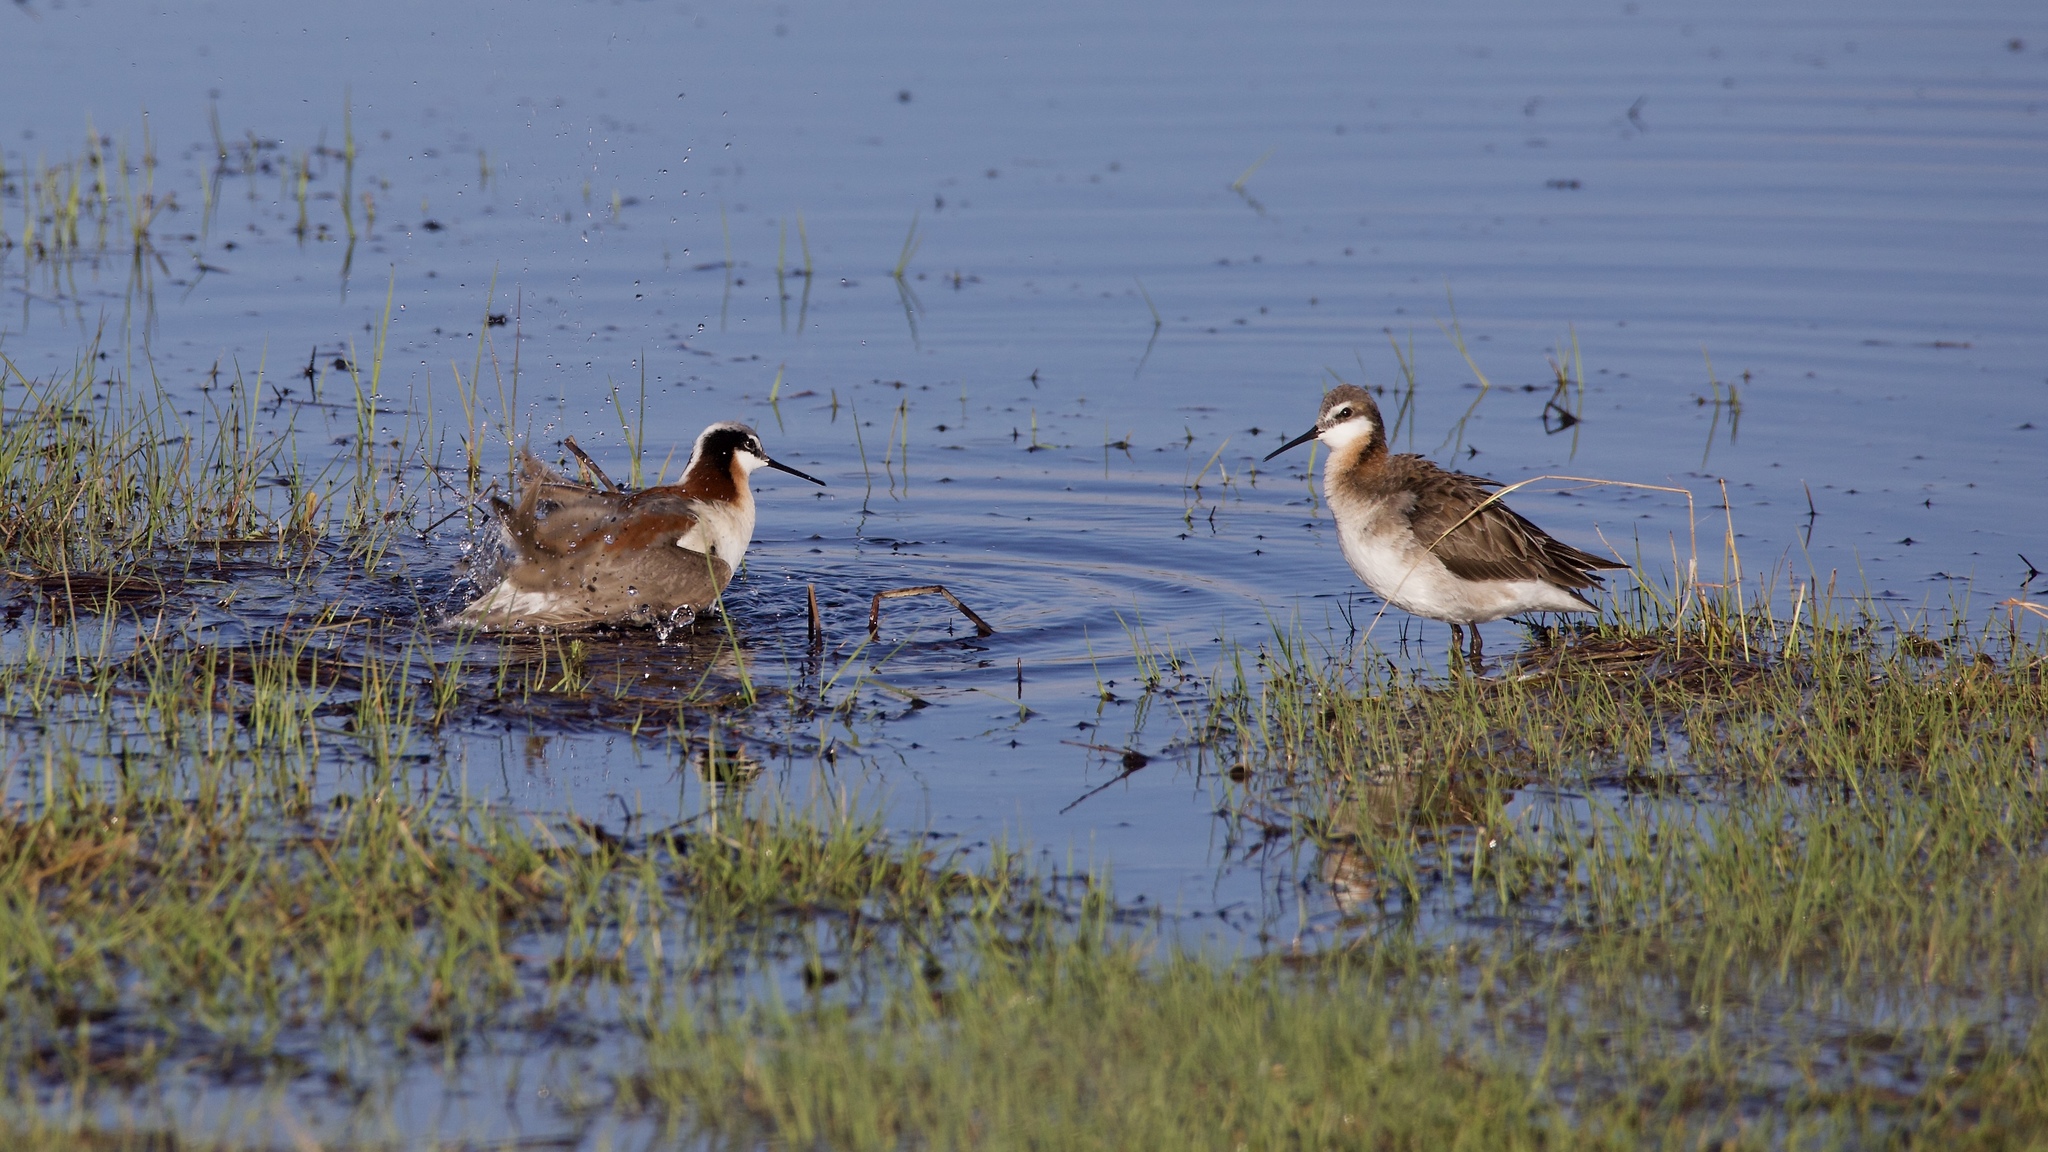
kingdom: Animalia
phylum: Chordata
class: Aves
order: Charadriiformes
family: Scolopacidae
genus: Phalaropus
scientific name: Phalaropus tricolor
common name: Wilson's phalarope
